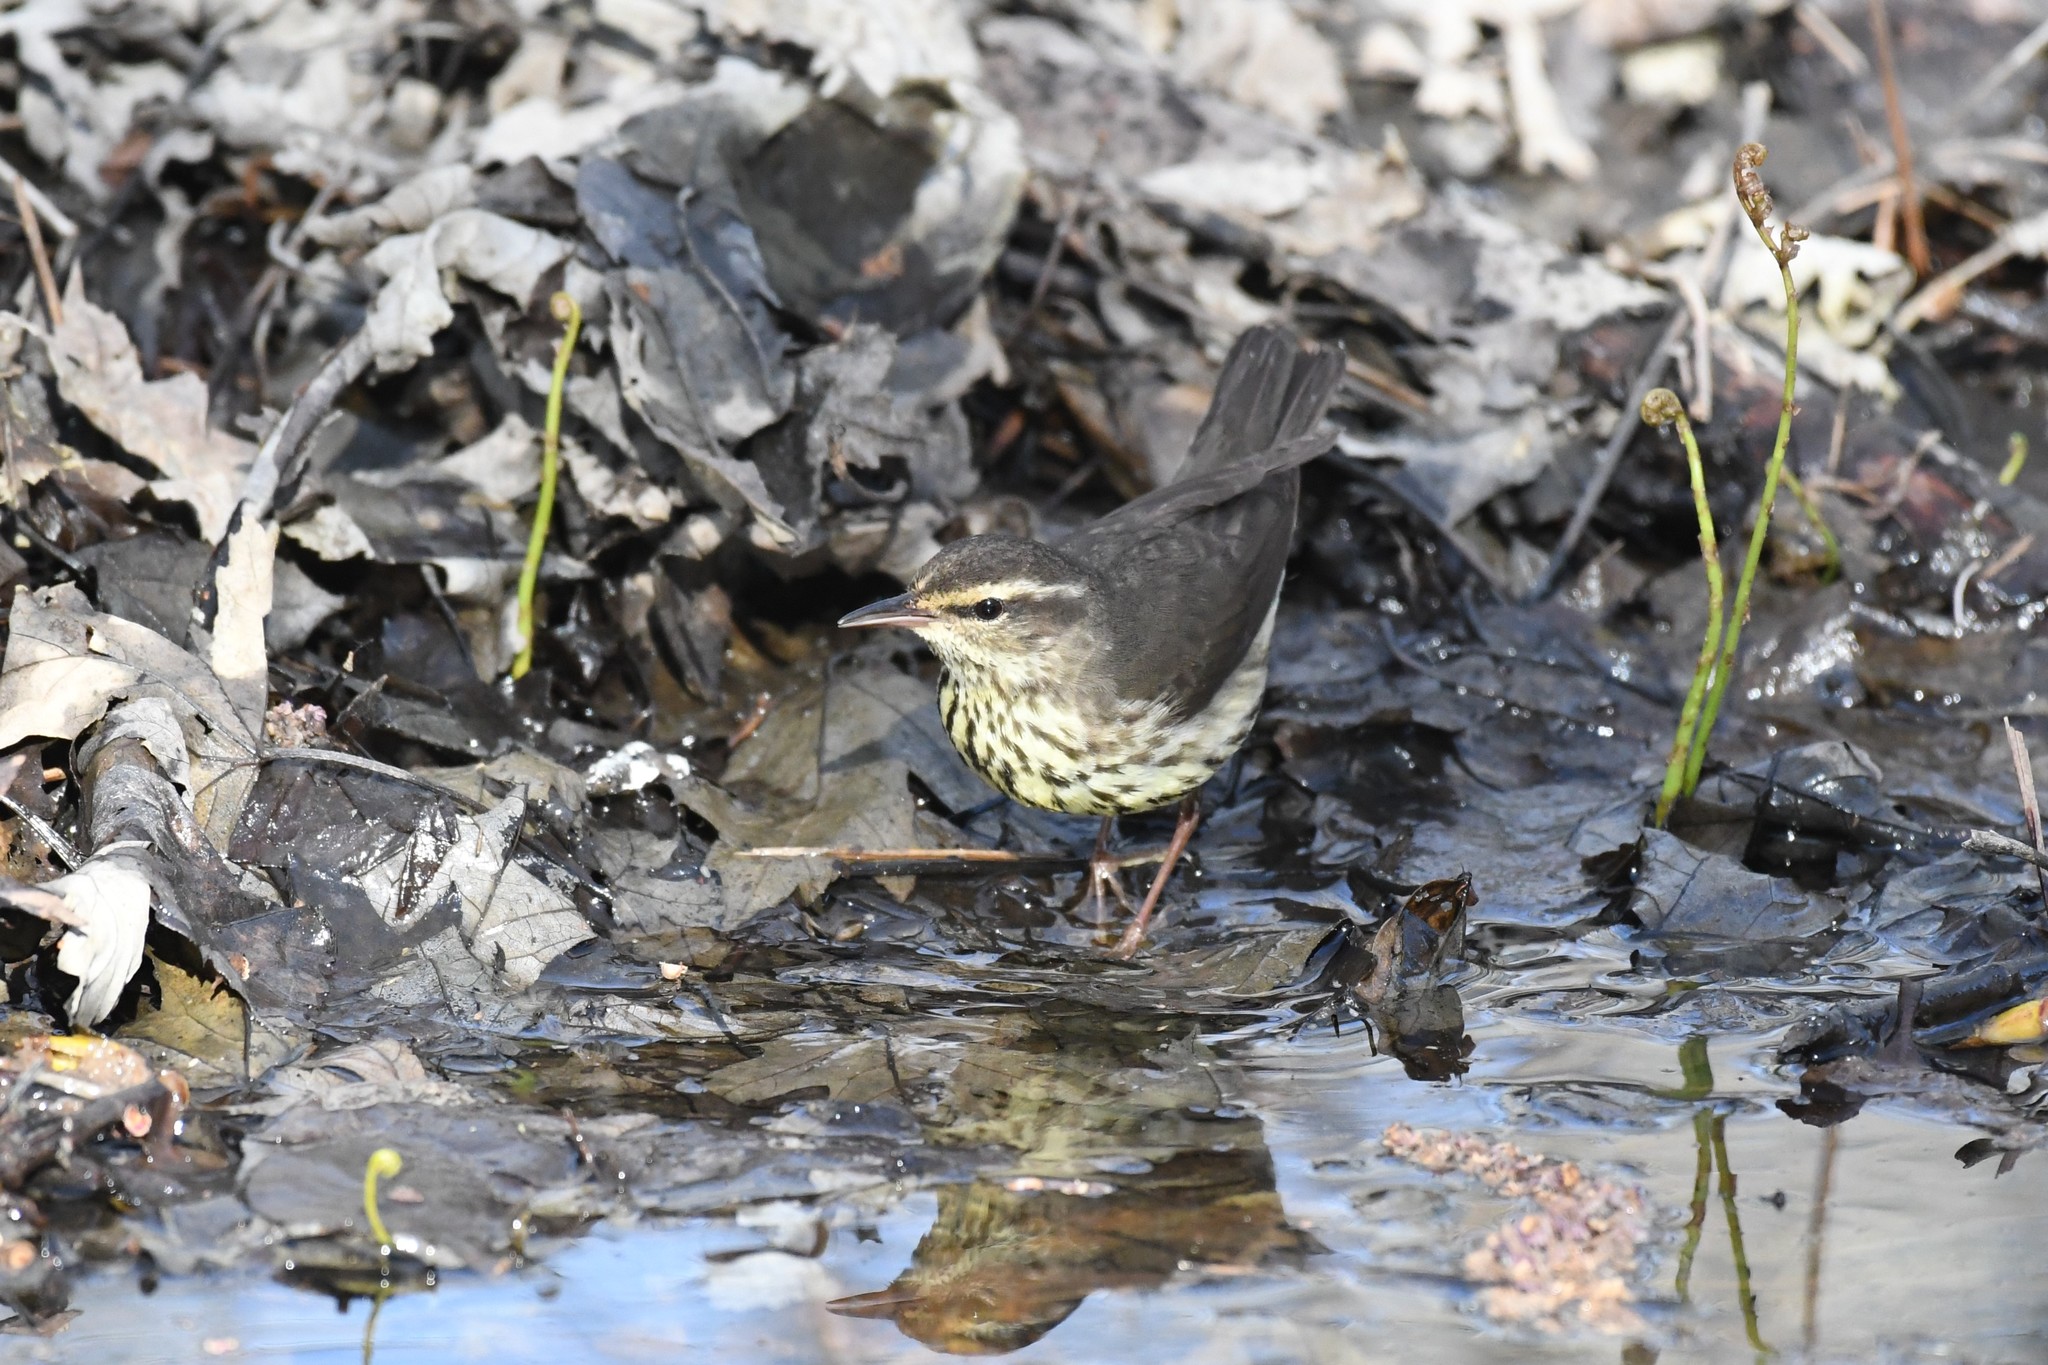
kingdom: Animalia
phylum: Chordata
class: Aves
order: Passeriformes
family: Parulidae
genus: Parkesia
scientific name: Parkesia noveboracensis
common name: Northern waterthrush
